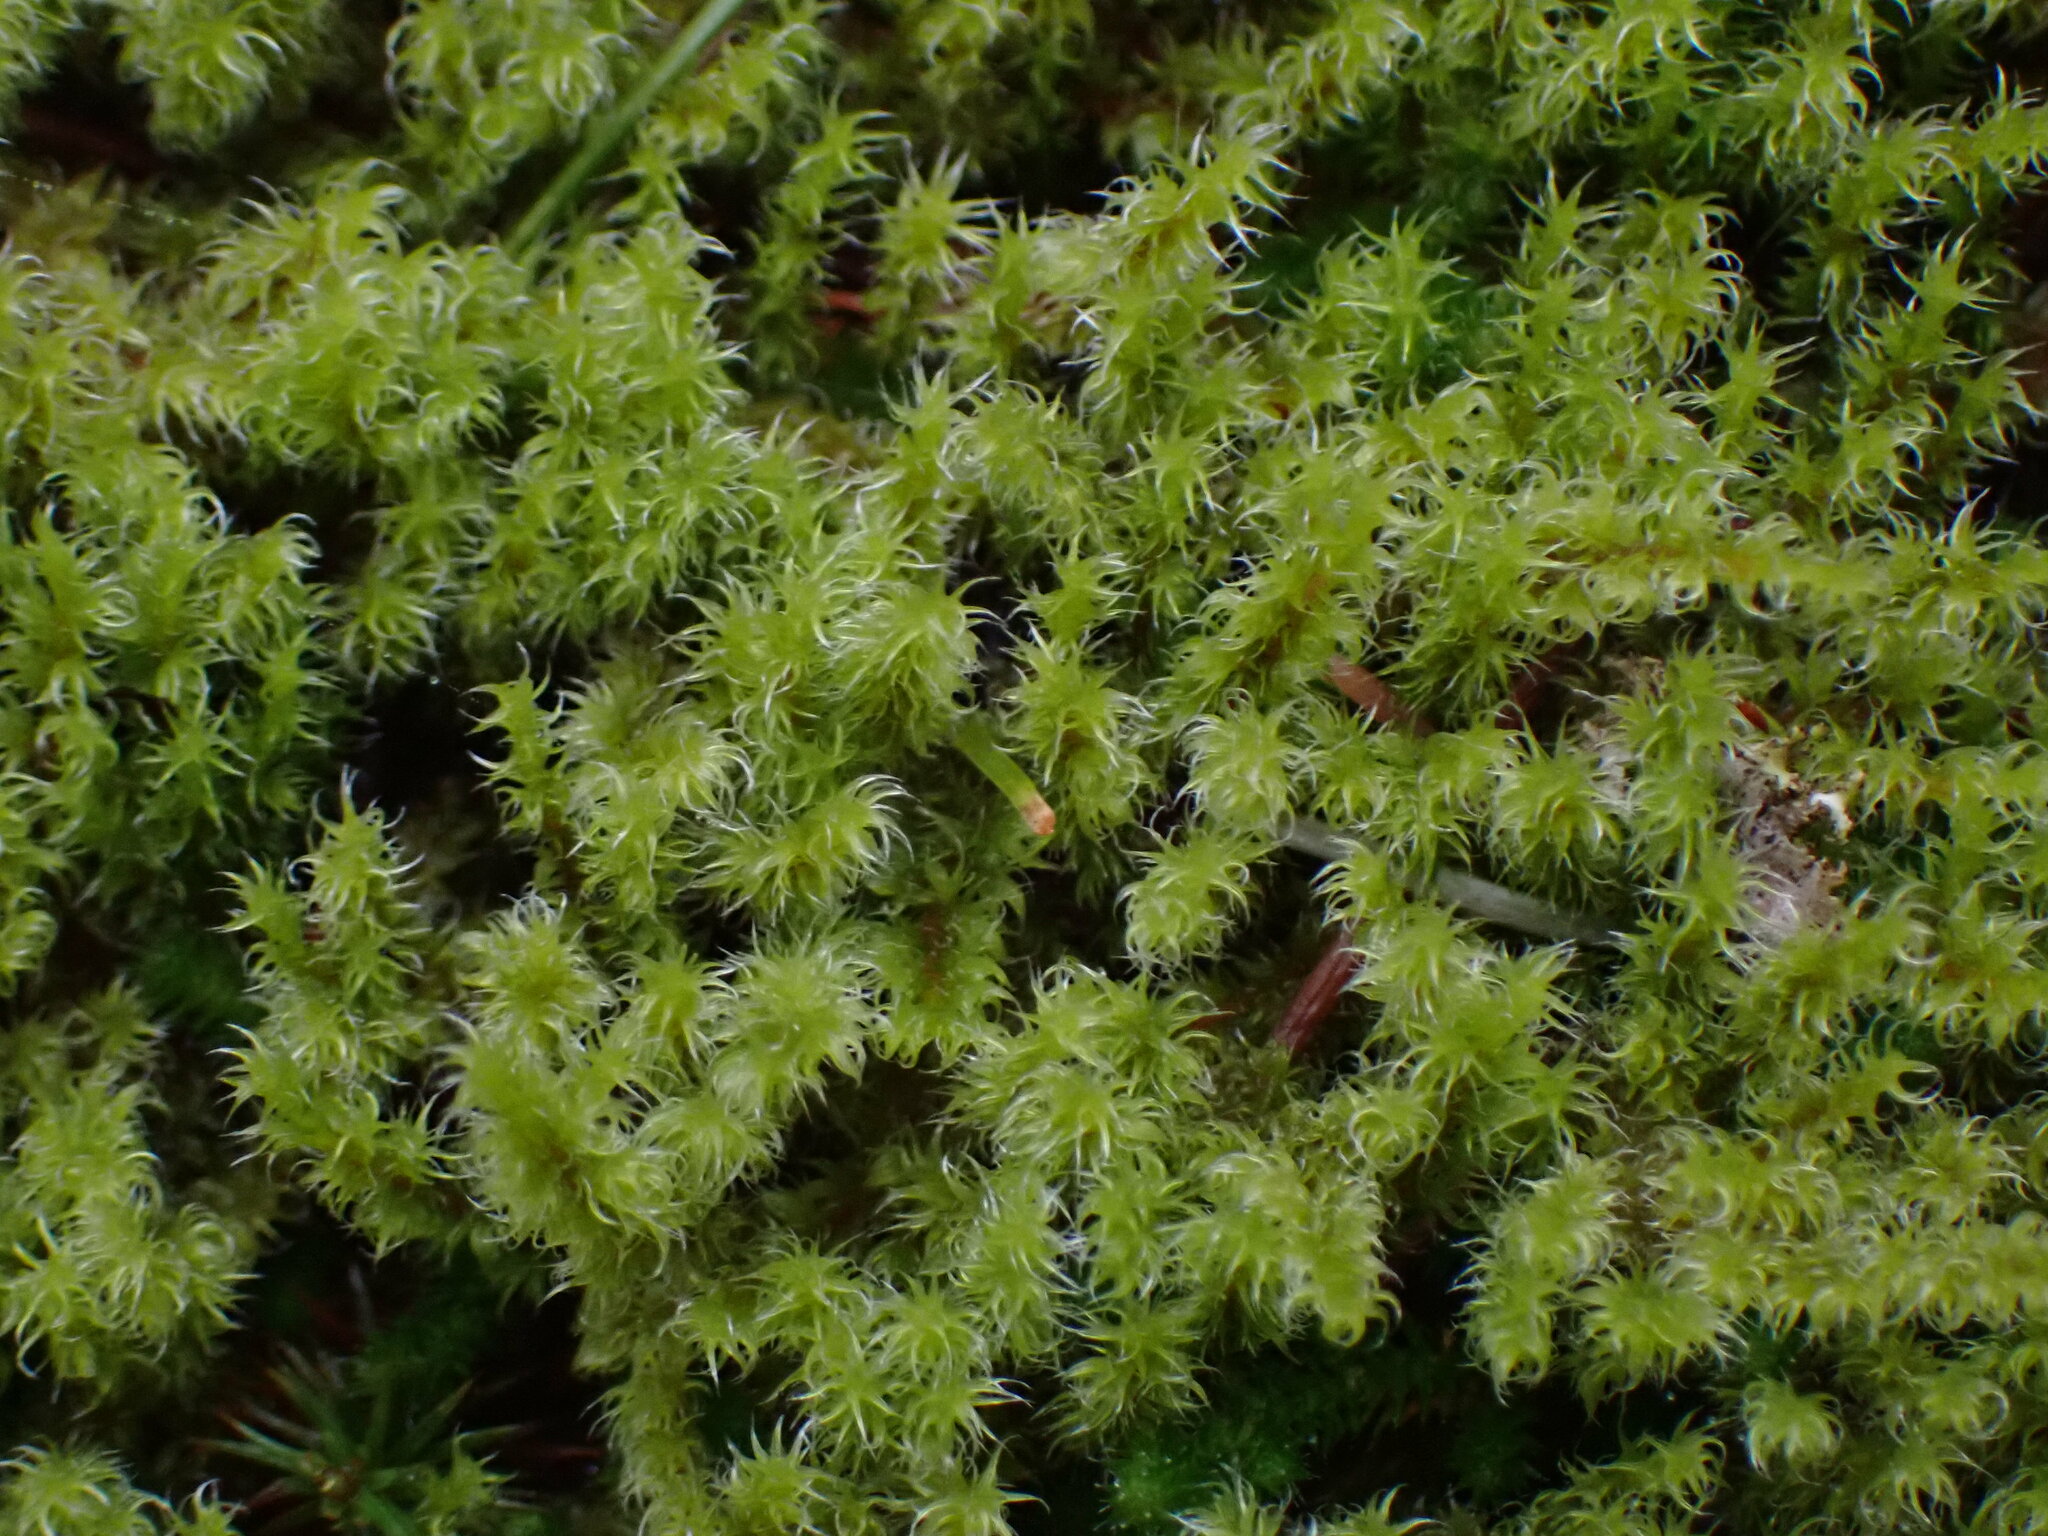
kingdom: Plantae
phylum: Bryophyta
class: Bryopsida
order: Grimmiales
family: Grimmiaceae
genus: Niphotrichum
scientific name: Niphotrichum elongatum
